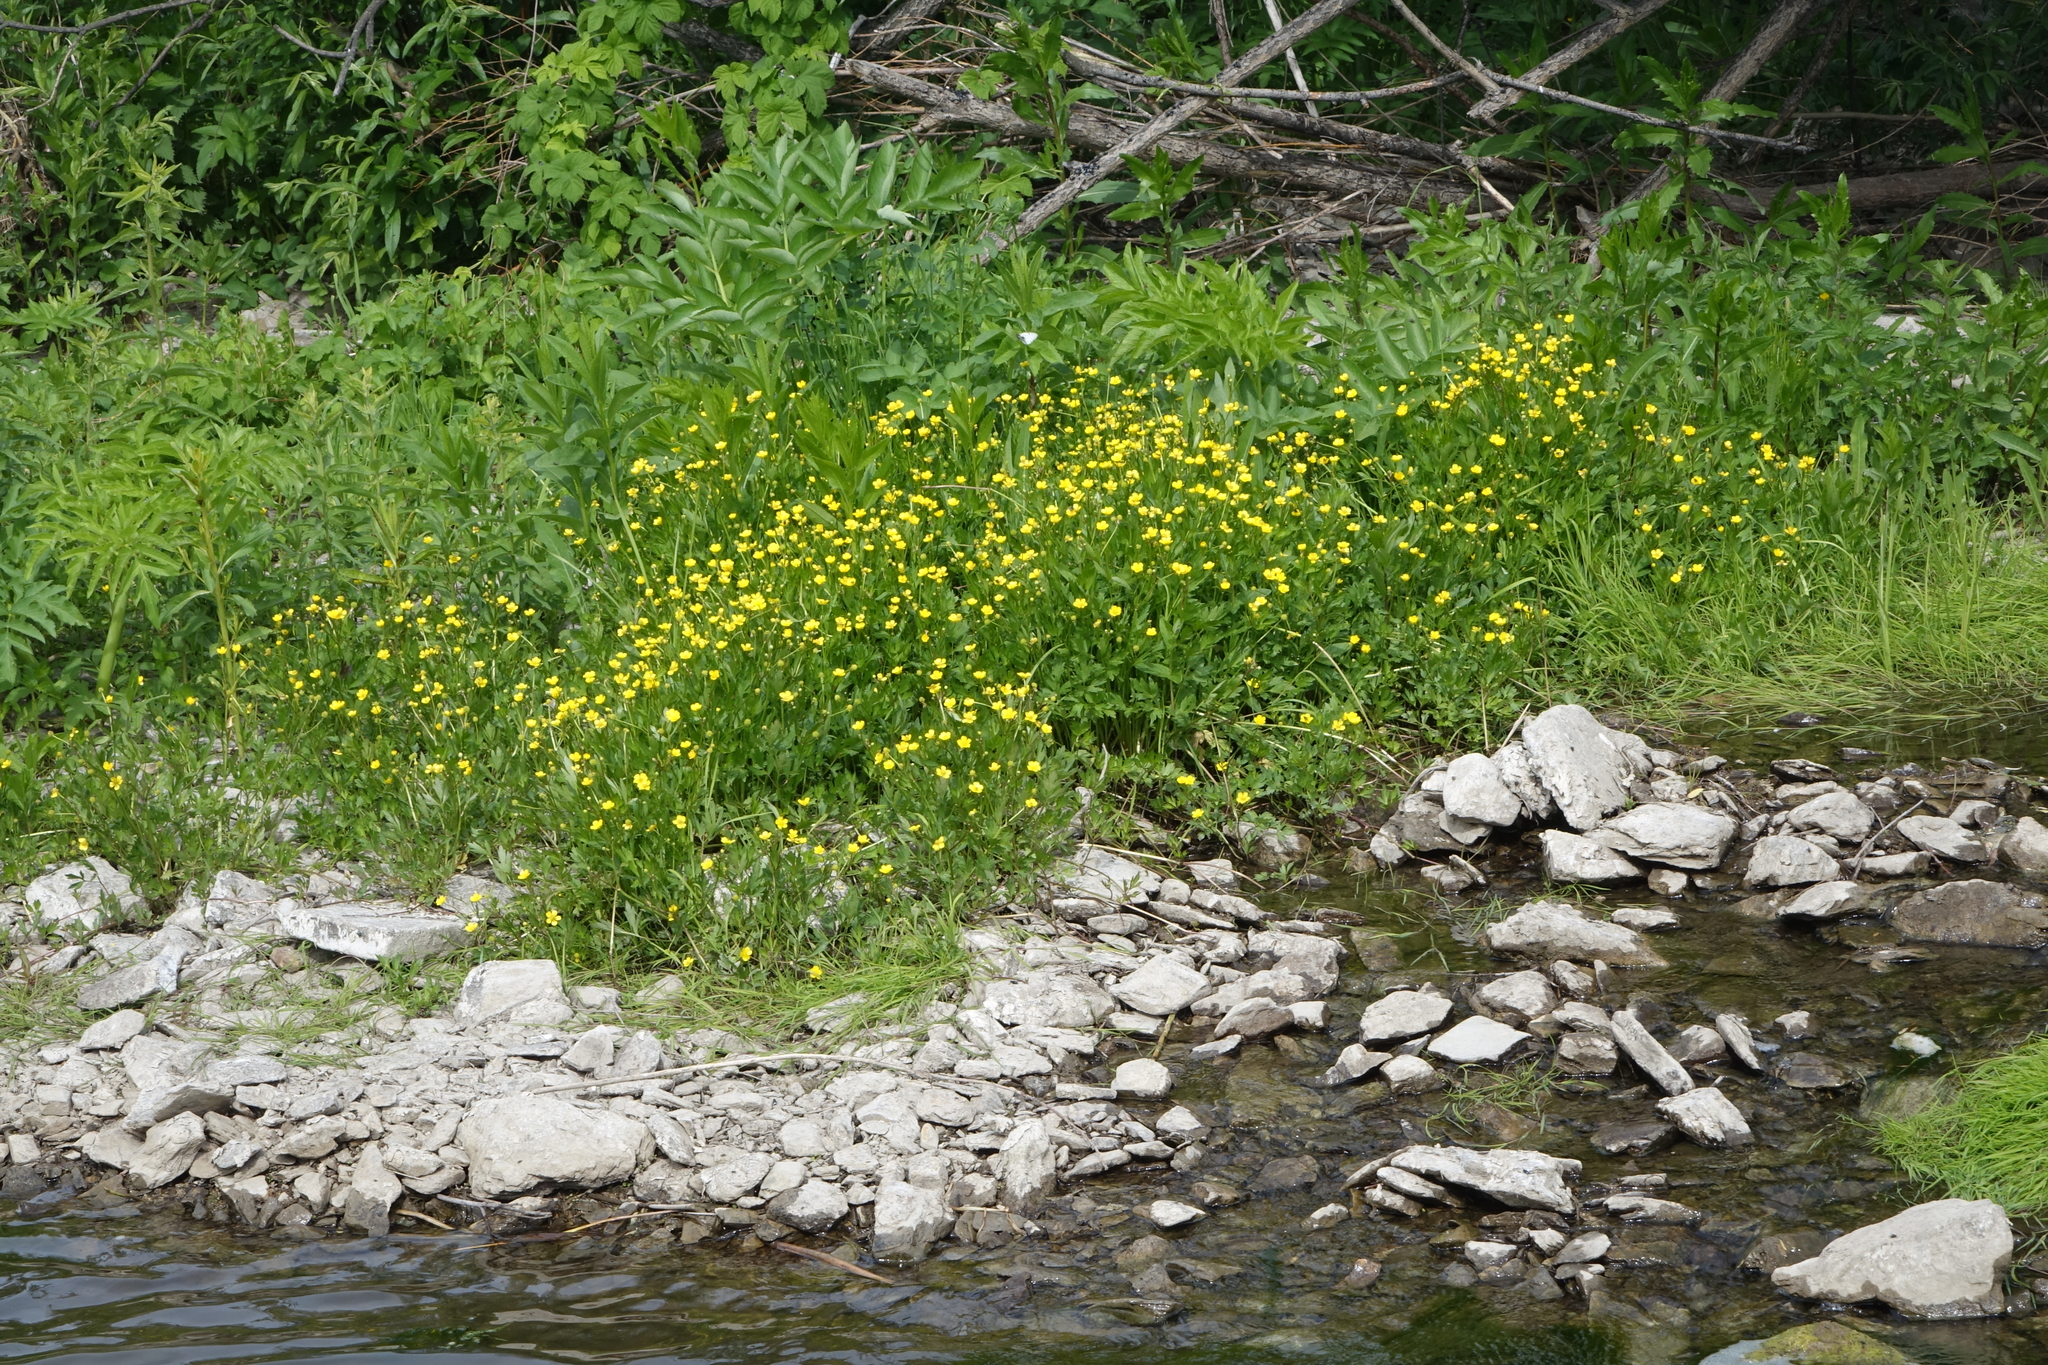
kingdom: Plantae
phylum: Tracheophyta
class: Magnoliopsida
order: Ranunculales
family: Ranunculaceae
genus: Ranunculus
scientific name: Ranunculus repens
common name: Creeping buttercup
